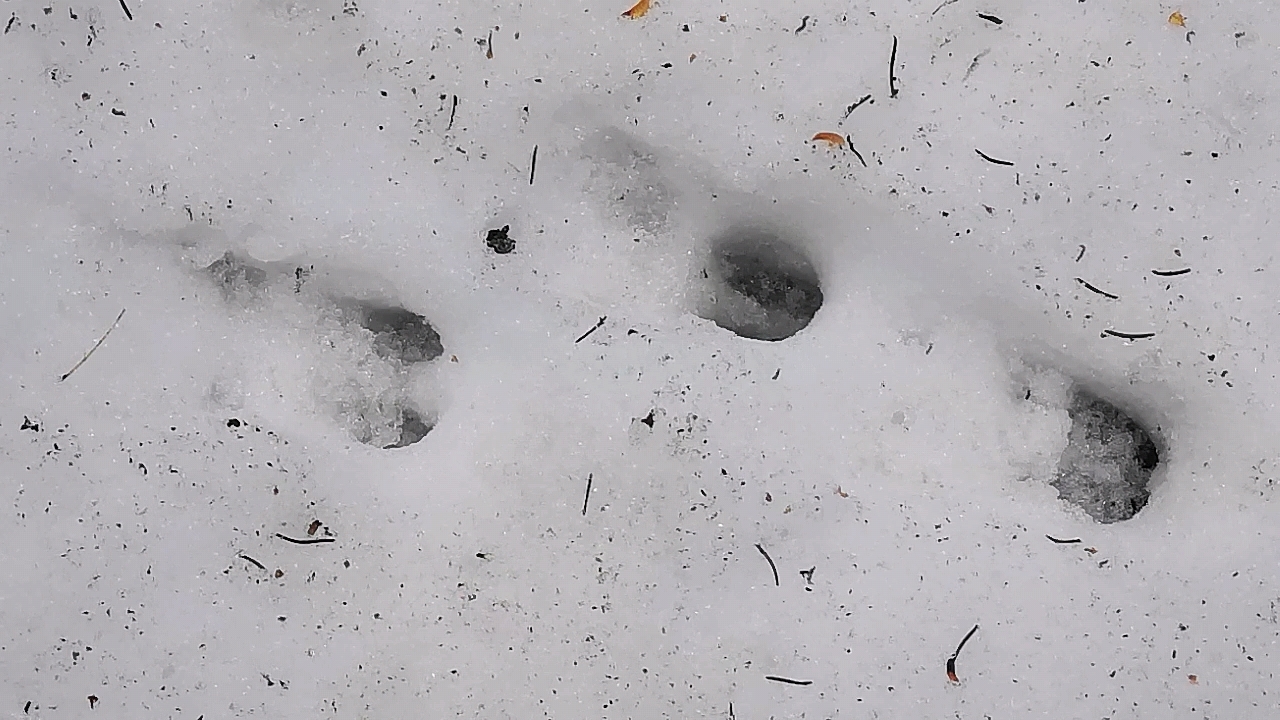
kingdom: Animalia
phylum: Chordata
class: Mammalia
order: Artiodactyla
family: Cervidae
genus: Capreolus
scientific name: Capreolus capreolus
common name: Western roe deer
